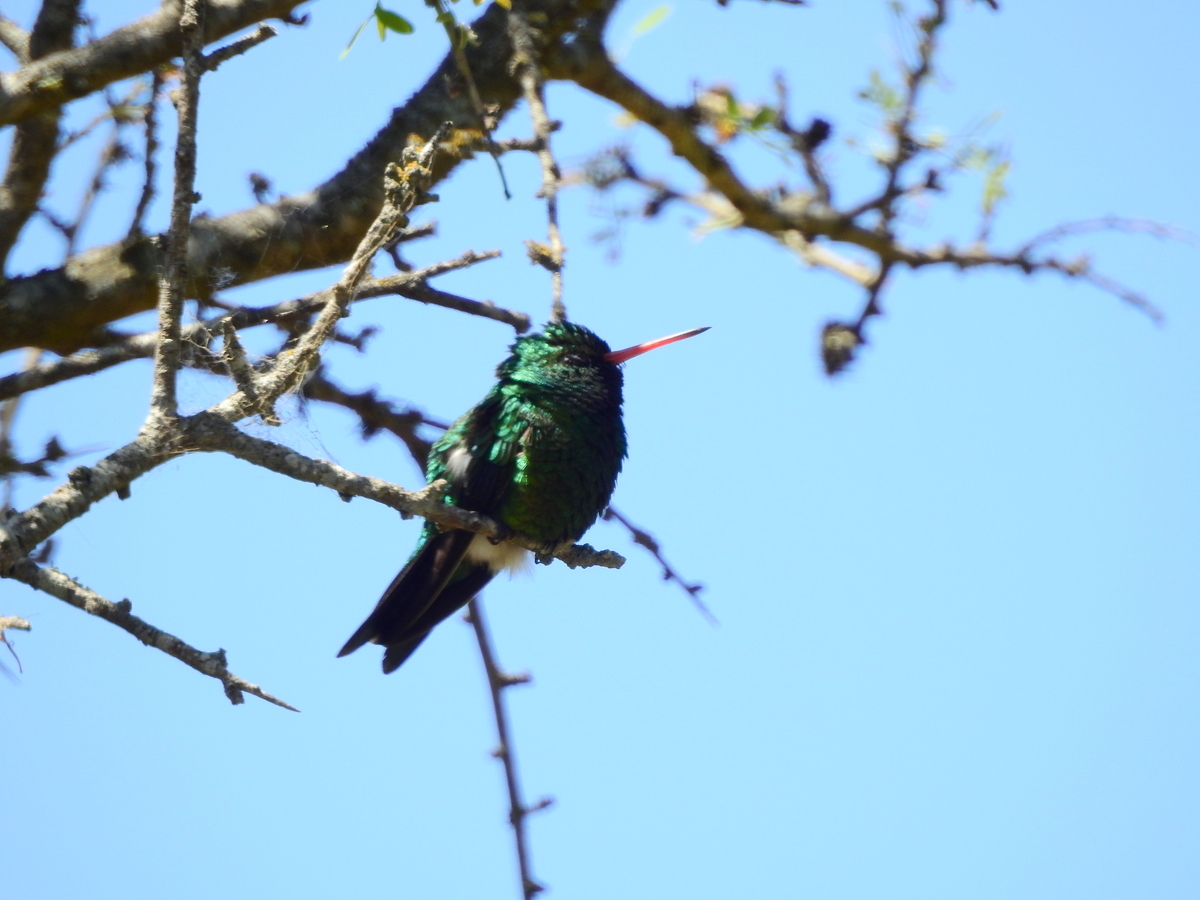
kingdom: Animalia
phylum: Chordata
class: Aves
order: Apodiformes
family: Trochilidae
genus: Chlorostilbon
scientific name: Chlorostilbon lucidus
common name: Glittering-bellied emerald
